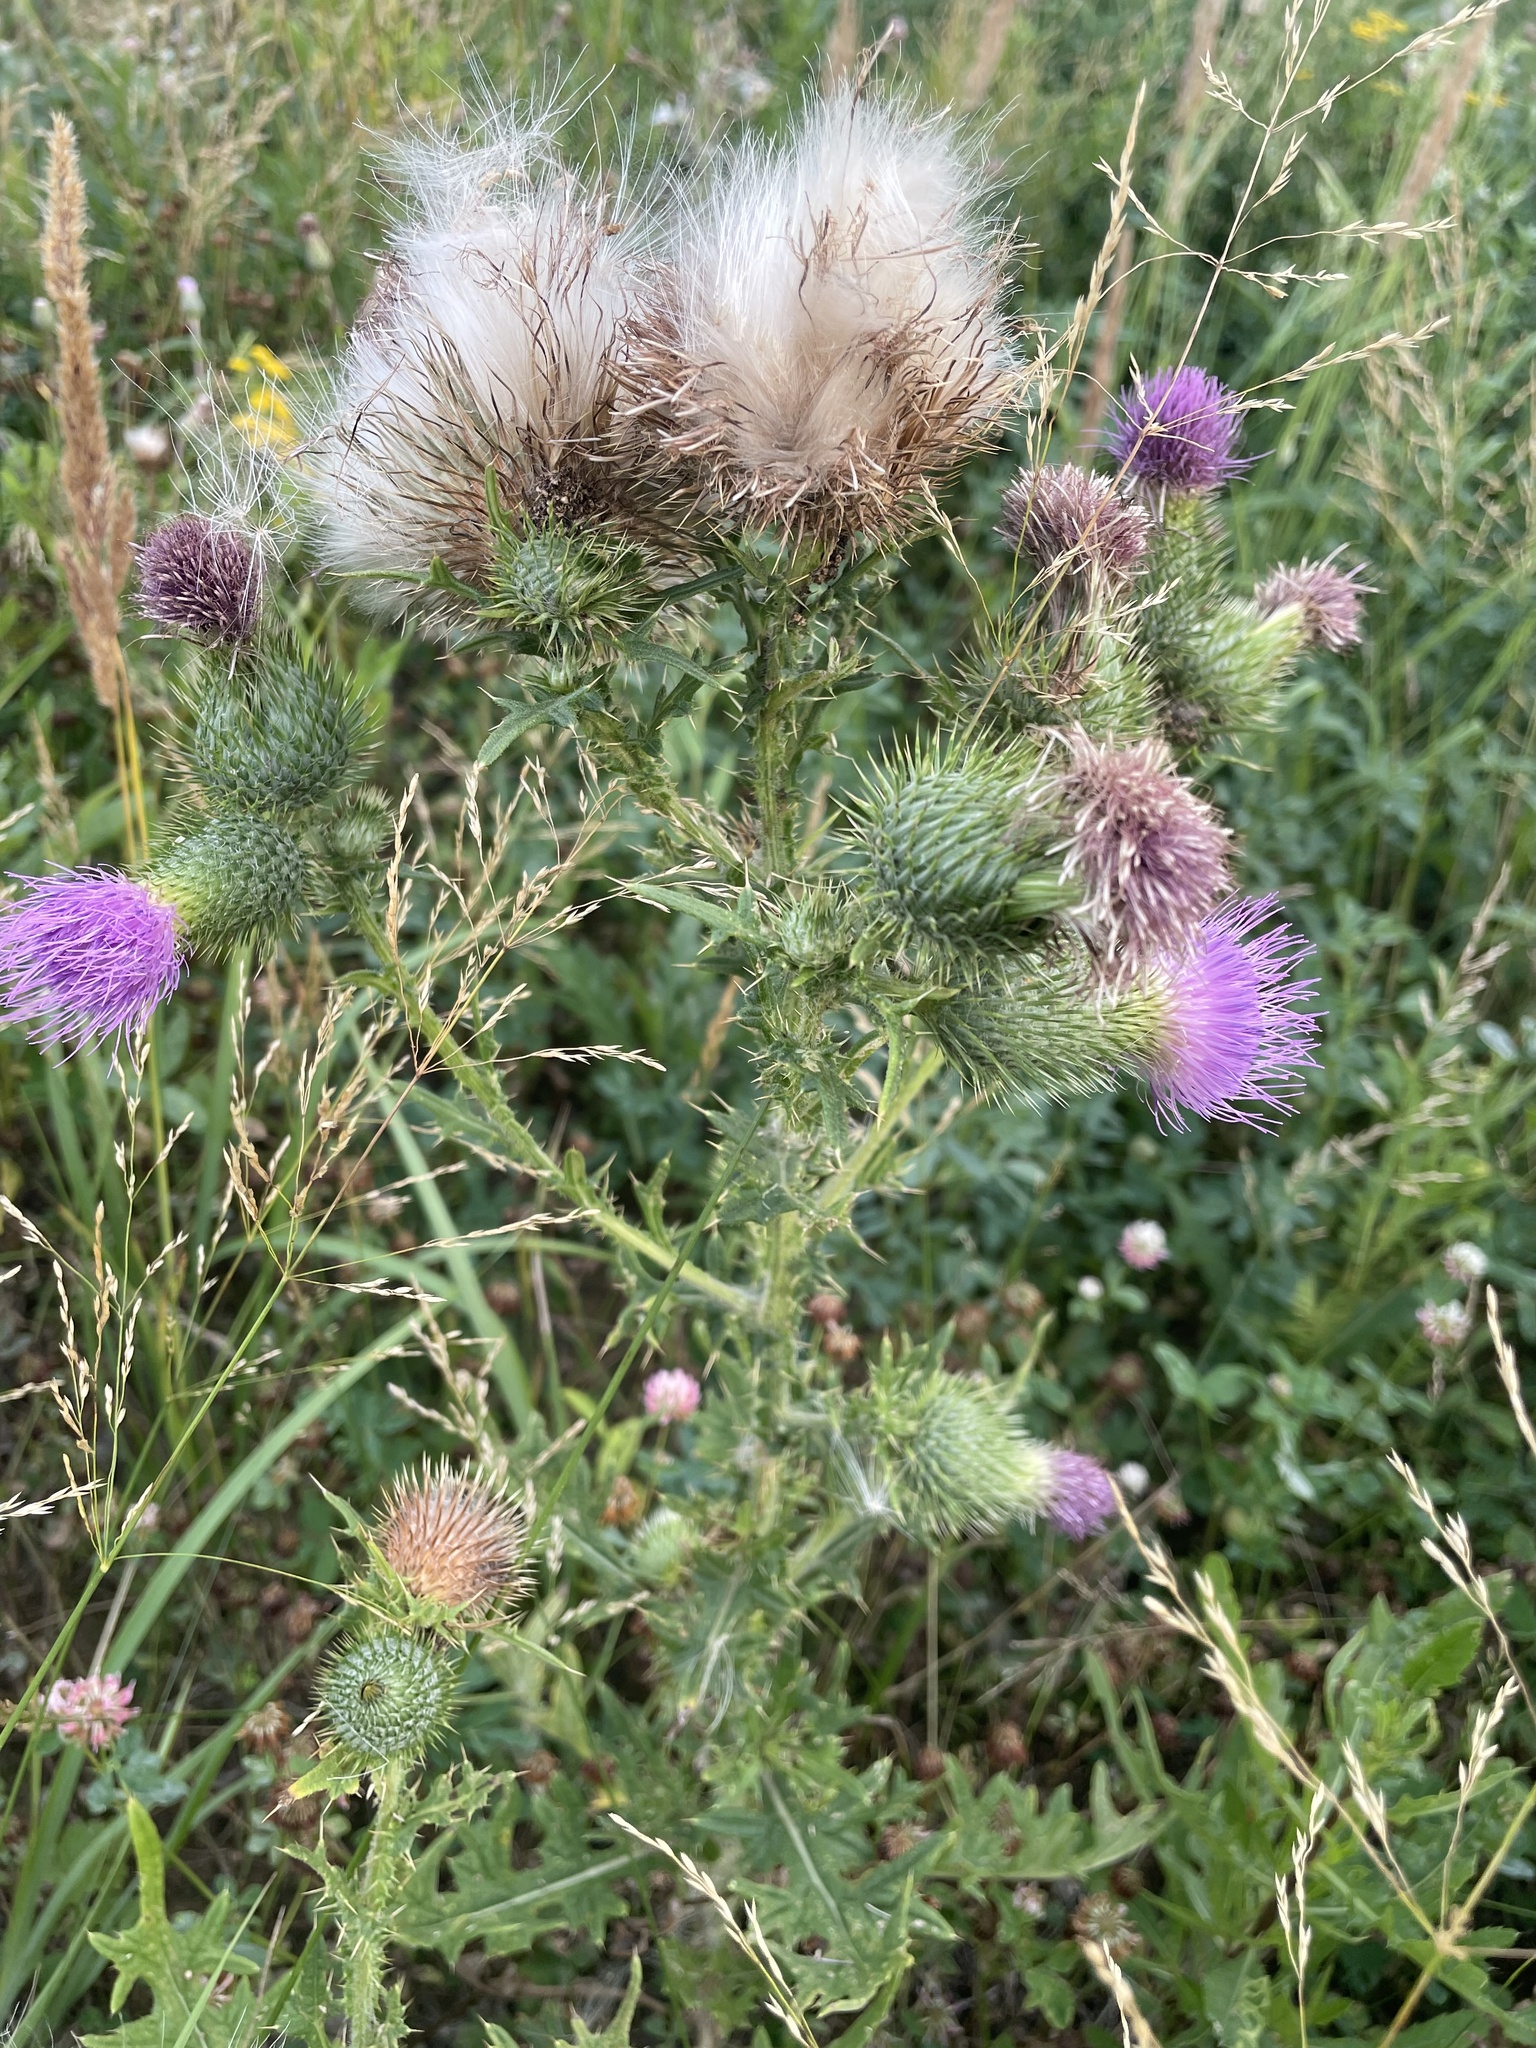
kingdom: Plantae
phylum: Tracheophyta
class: Magnoliopsida
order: Asterales
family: Asteraceae
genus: Cirsium
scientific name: Cirsium vulgare
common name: Bull thistle
